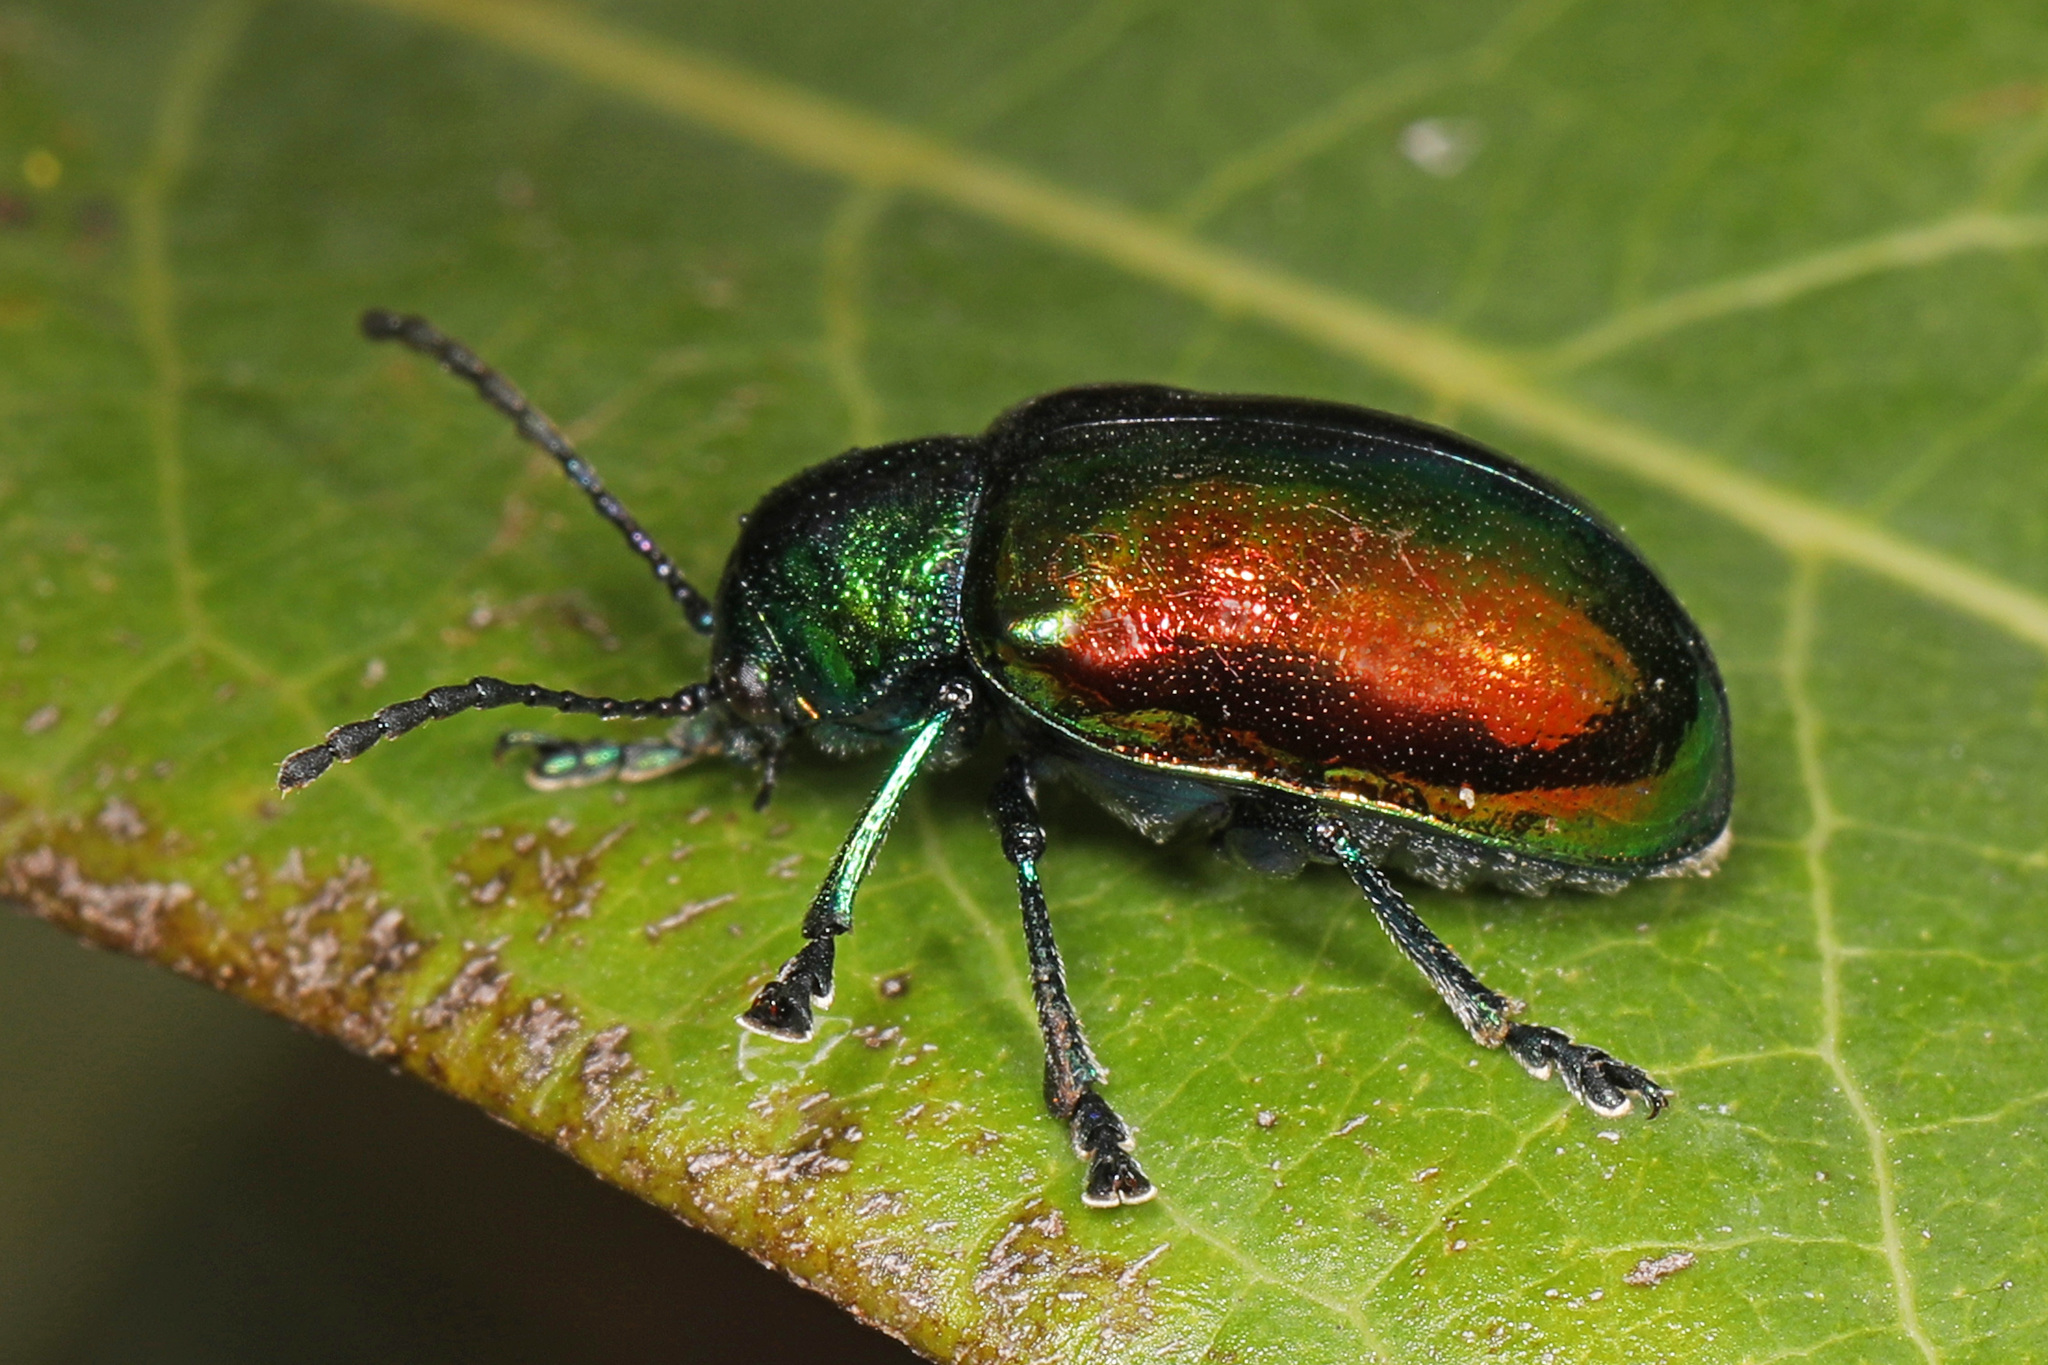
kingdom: Animalia
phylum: Arthropoda
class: Insecta
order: Coleoptera
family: Chrysomelidae
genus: Chrysochus
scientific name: Chrysochus auratus
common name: Dogbane leaf beetle
